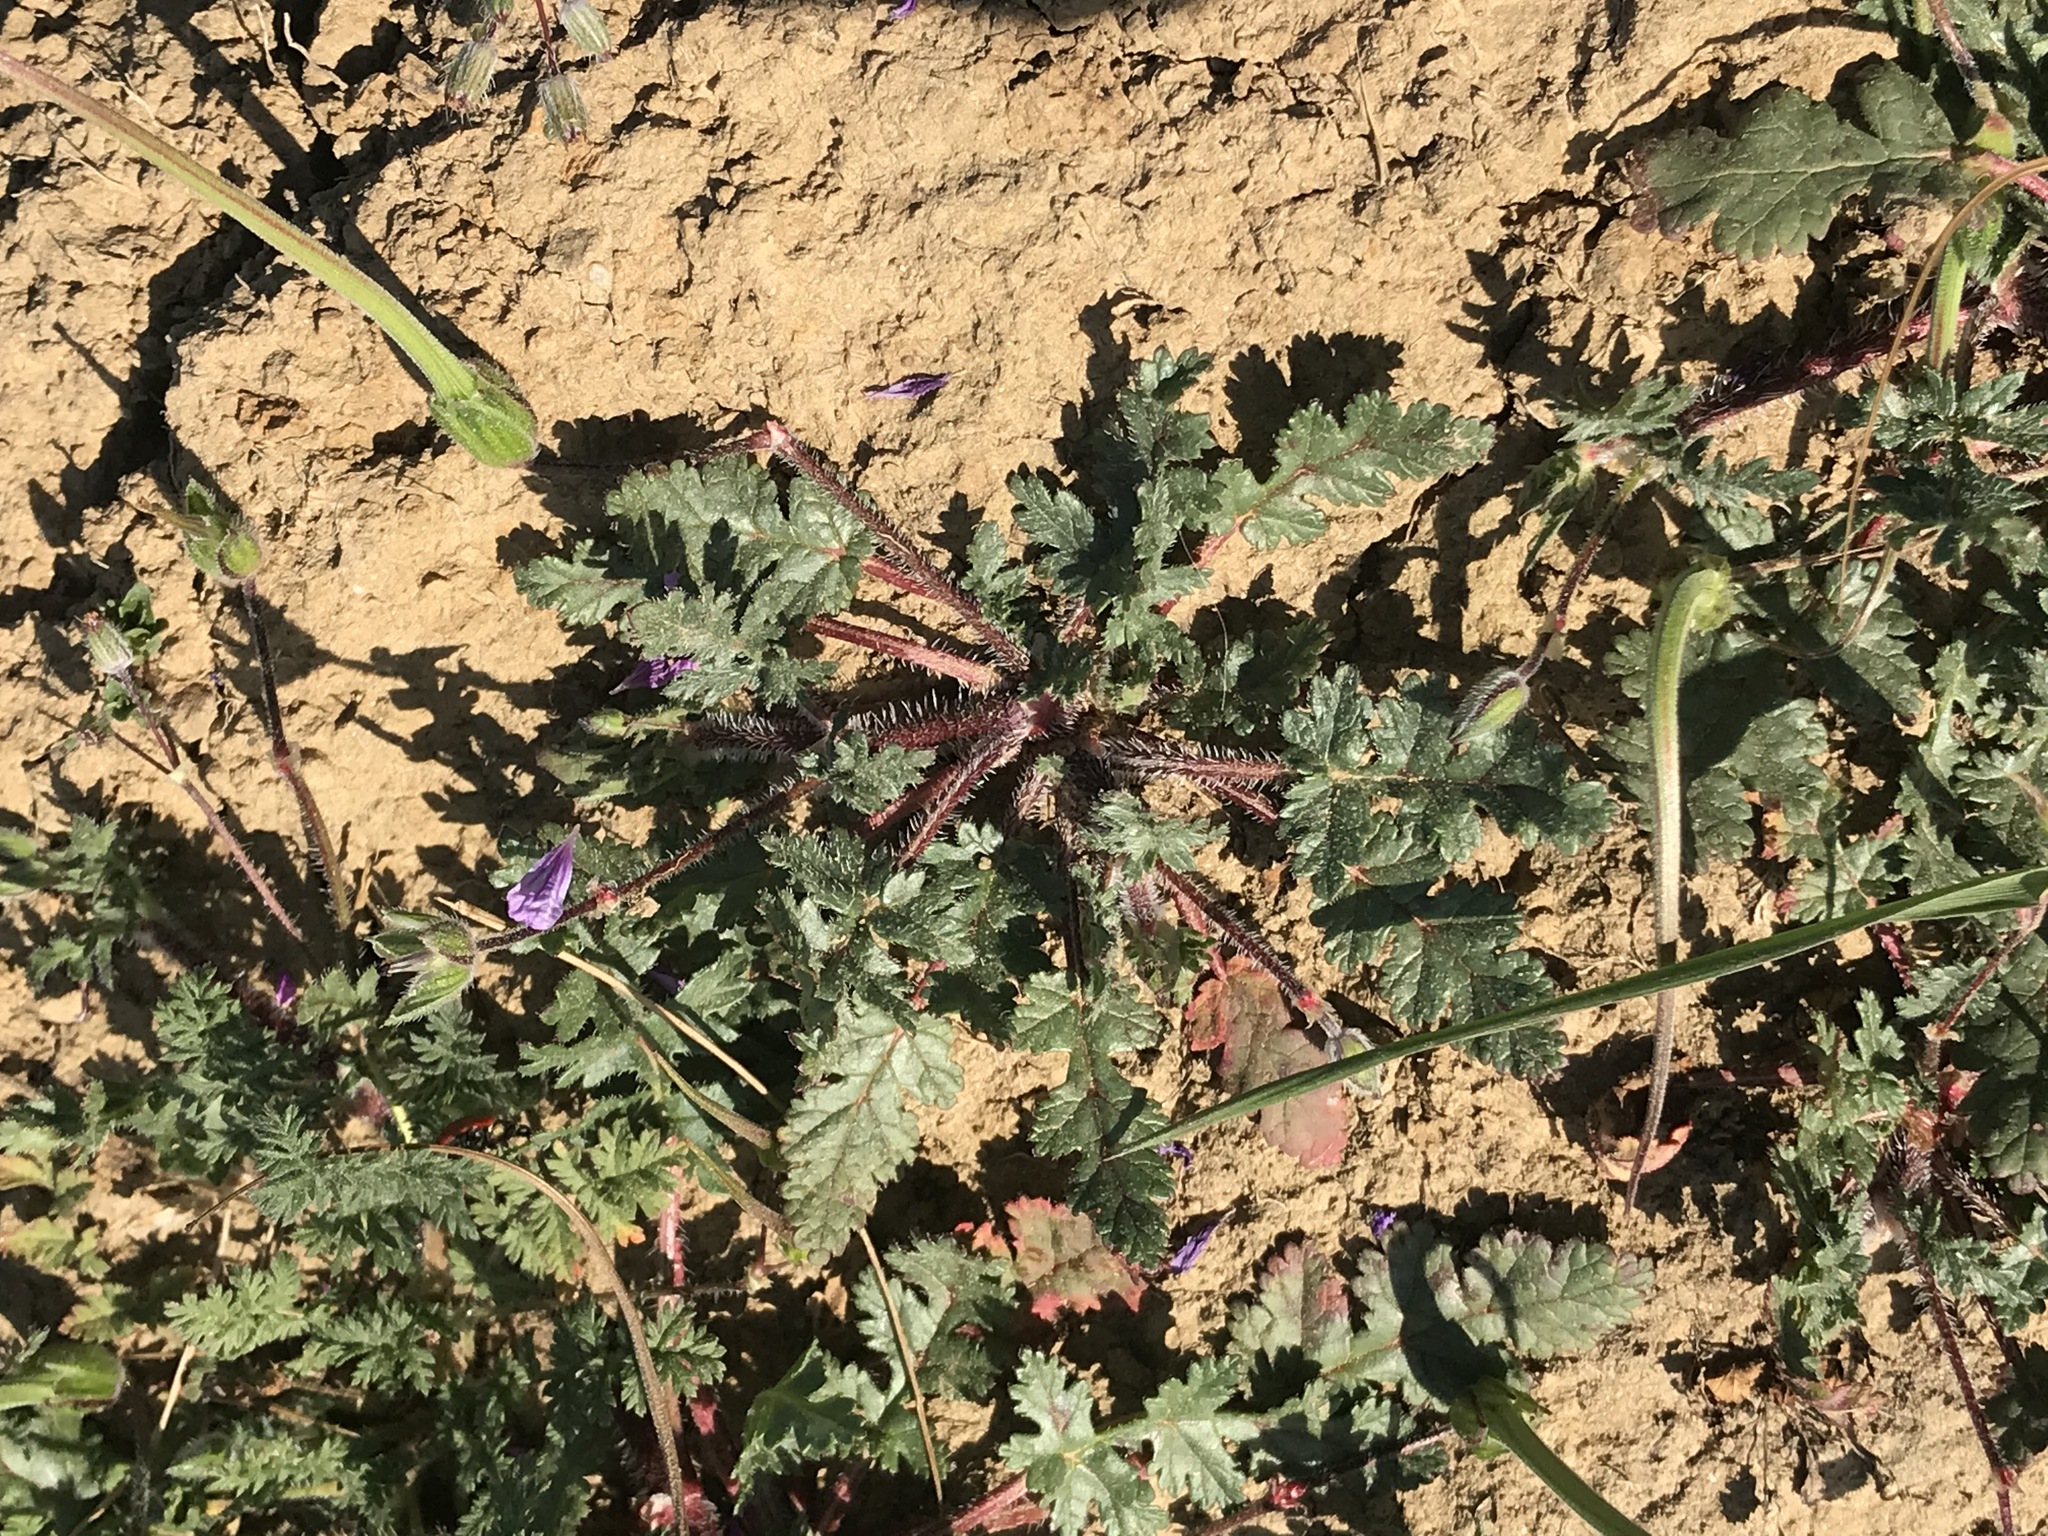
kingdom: Plantae
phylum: Tracheophyta
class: Magnoliopsida
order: Geraniales
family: Geraniaceae
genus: Erodium
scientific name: Erodium botrys
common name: Mediterranean stork's-bill
